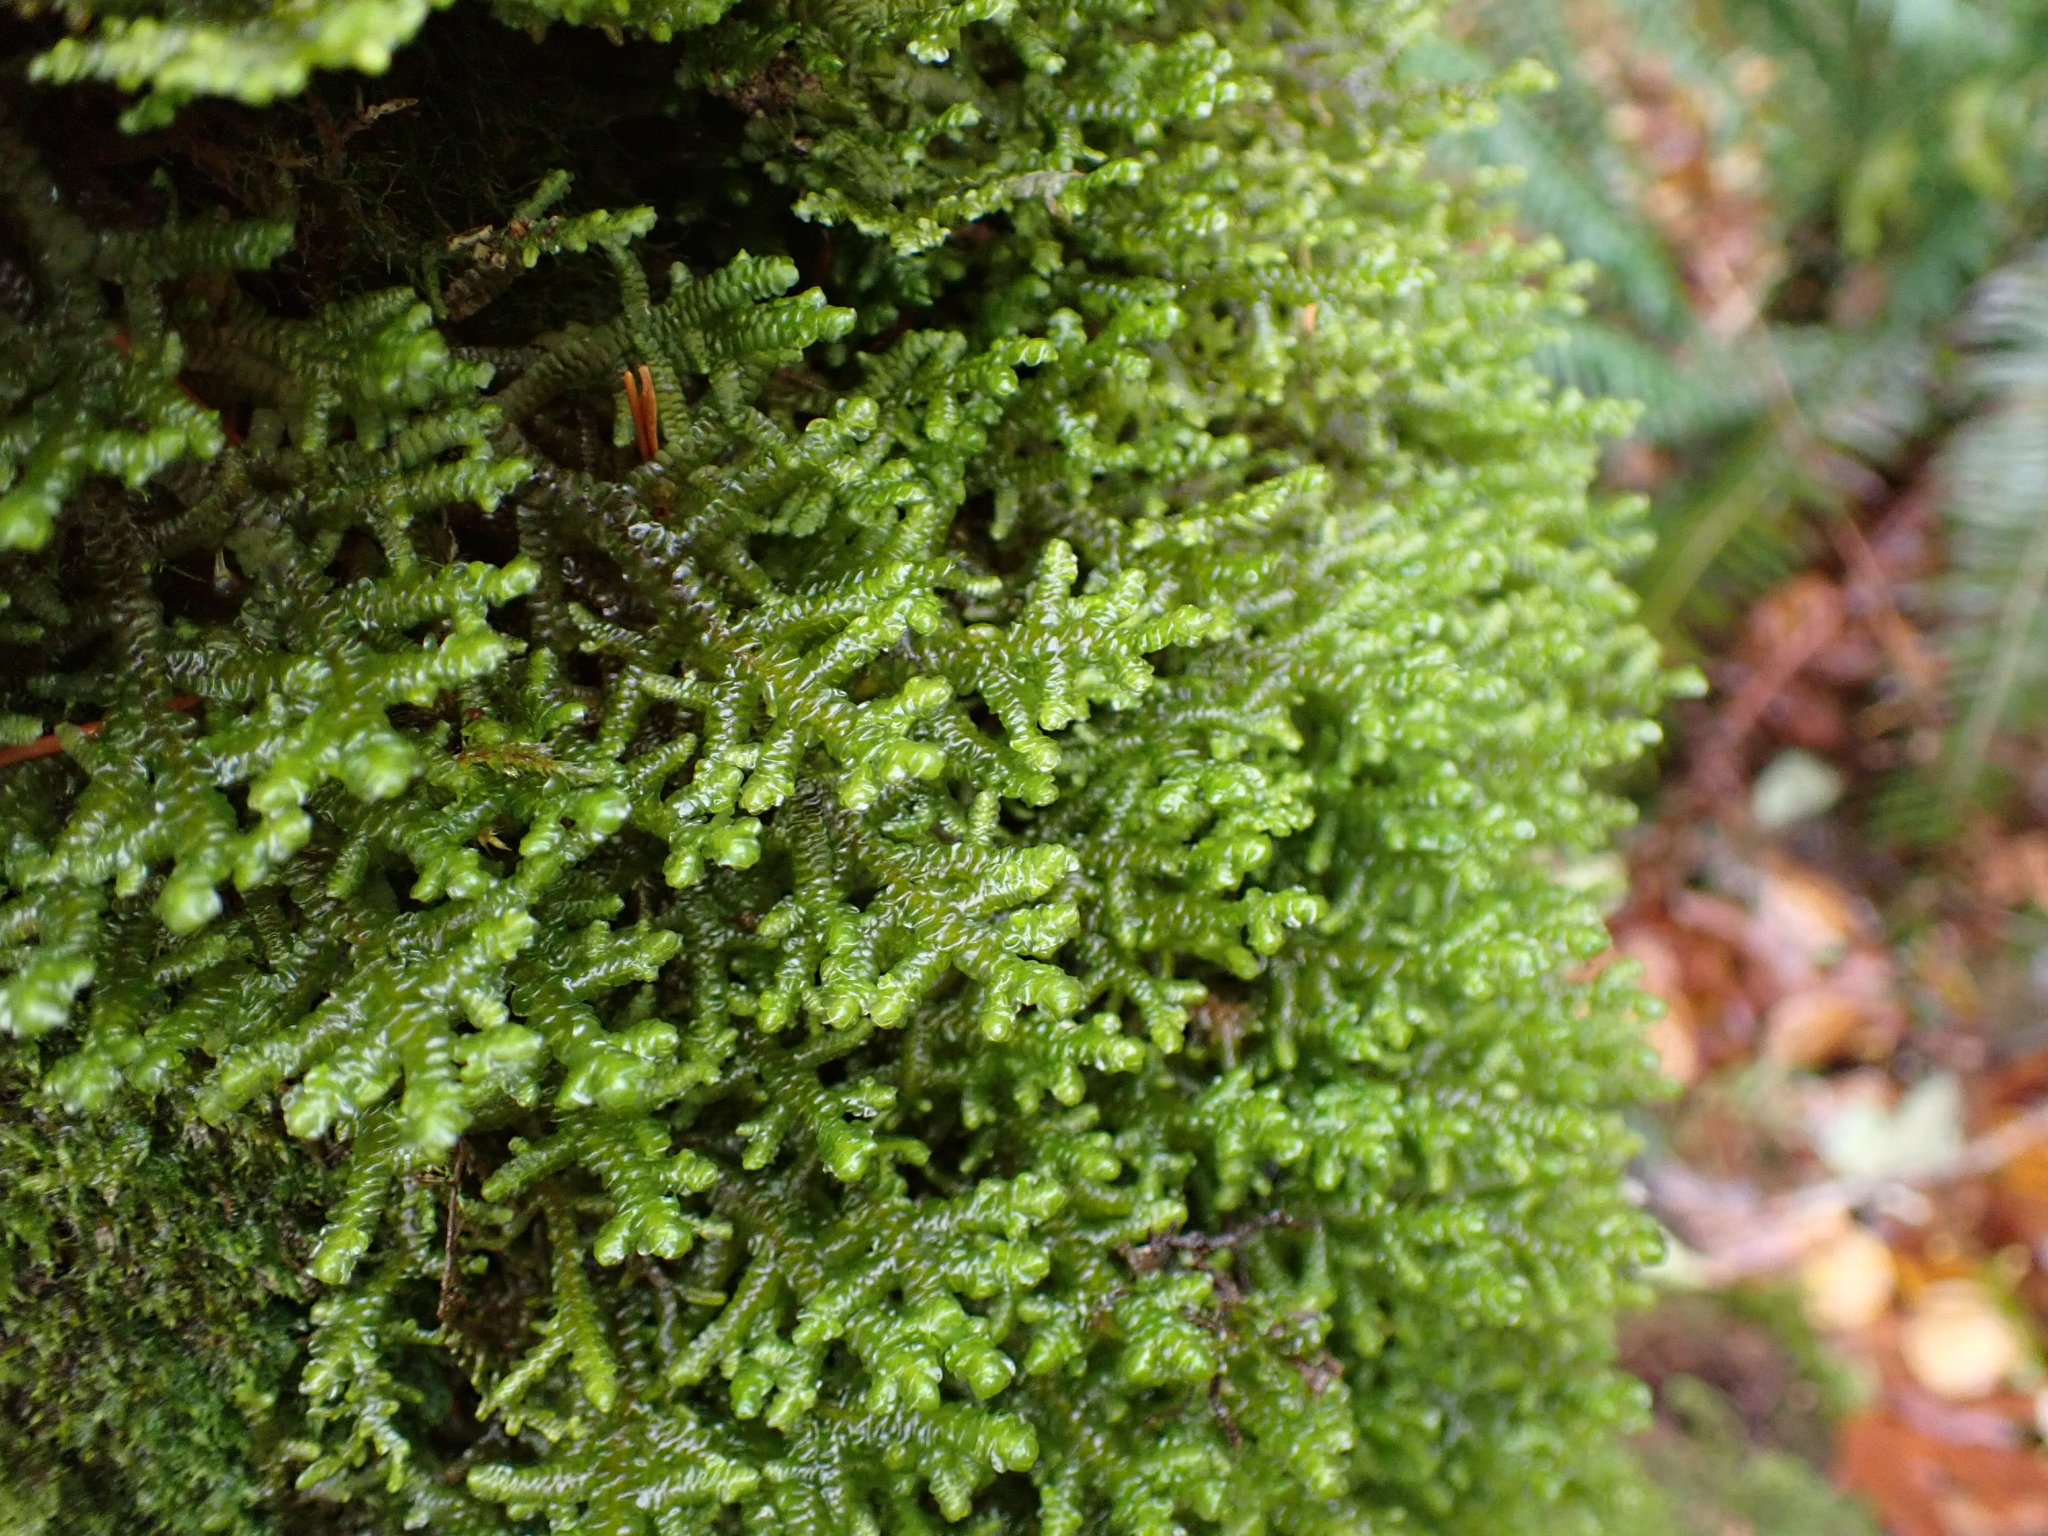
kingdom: Plantae
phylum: Marchantiophyta
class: Jungermanniopsida
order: Porellales
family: Porellaceae
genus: Porella
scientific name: Porella navicularis
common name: Tree ruffle liverwort
